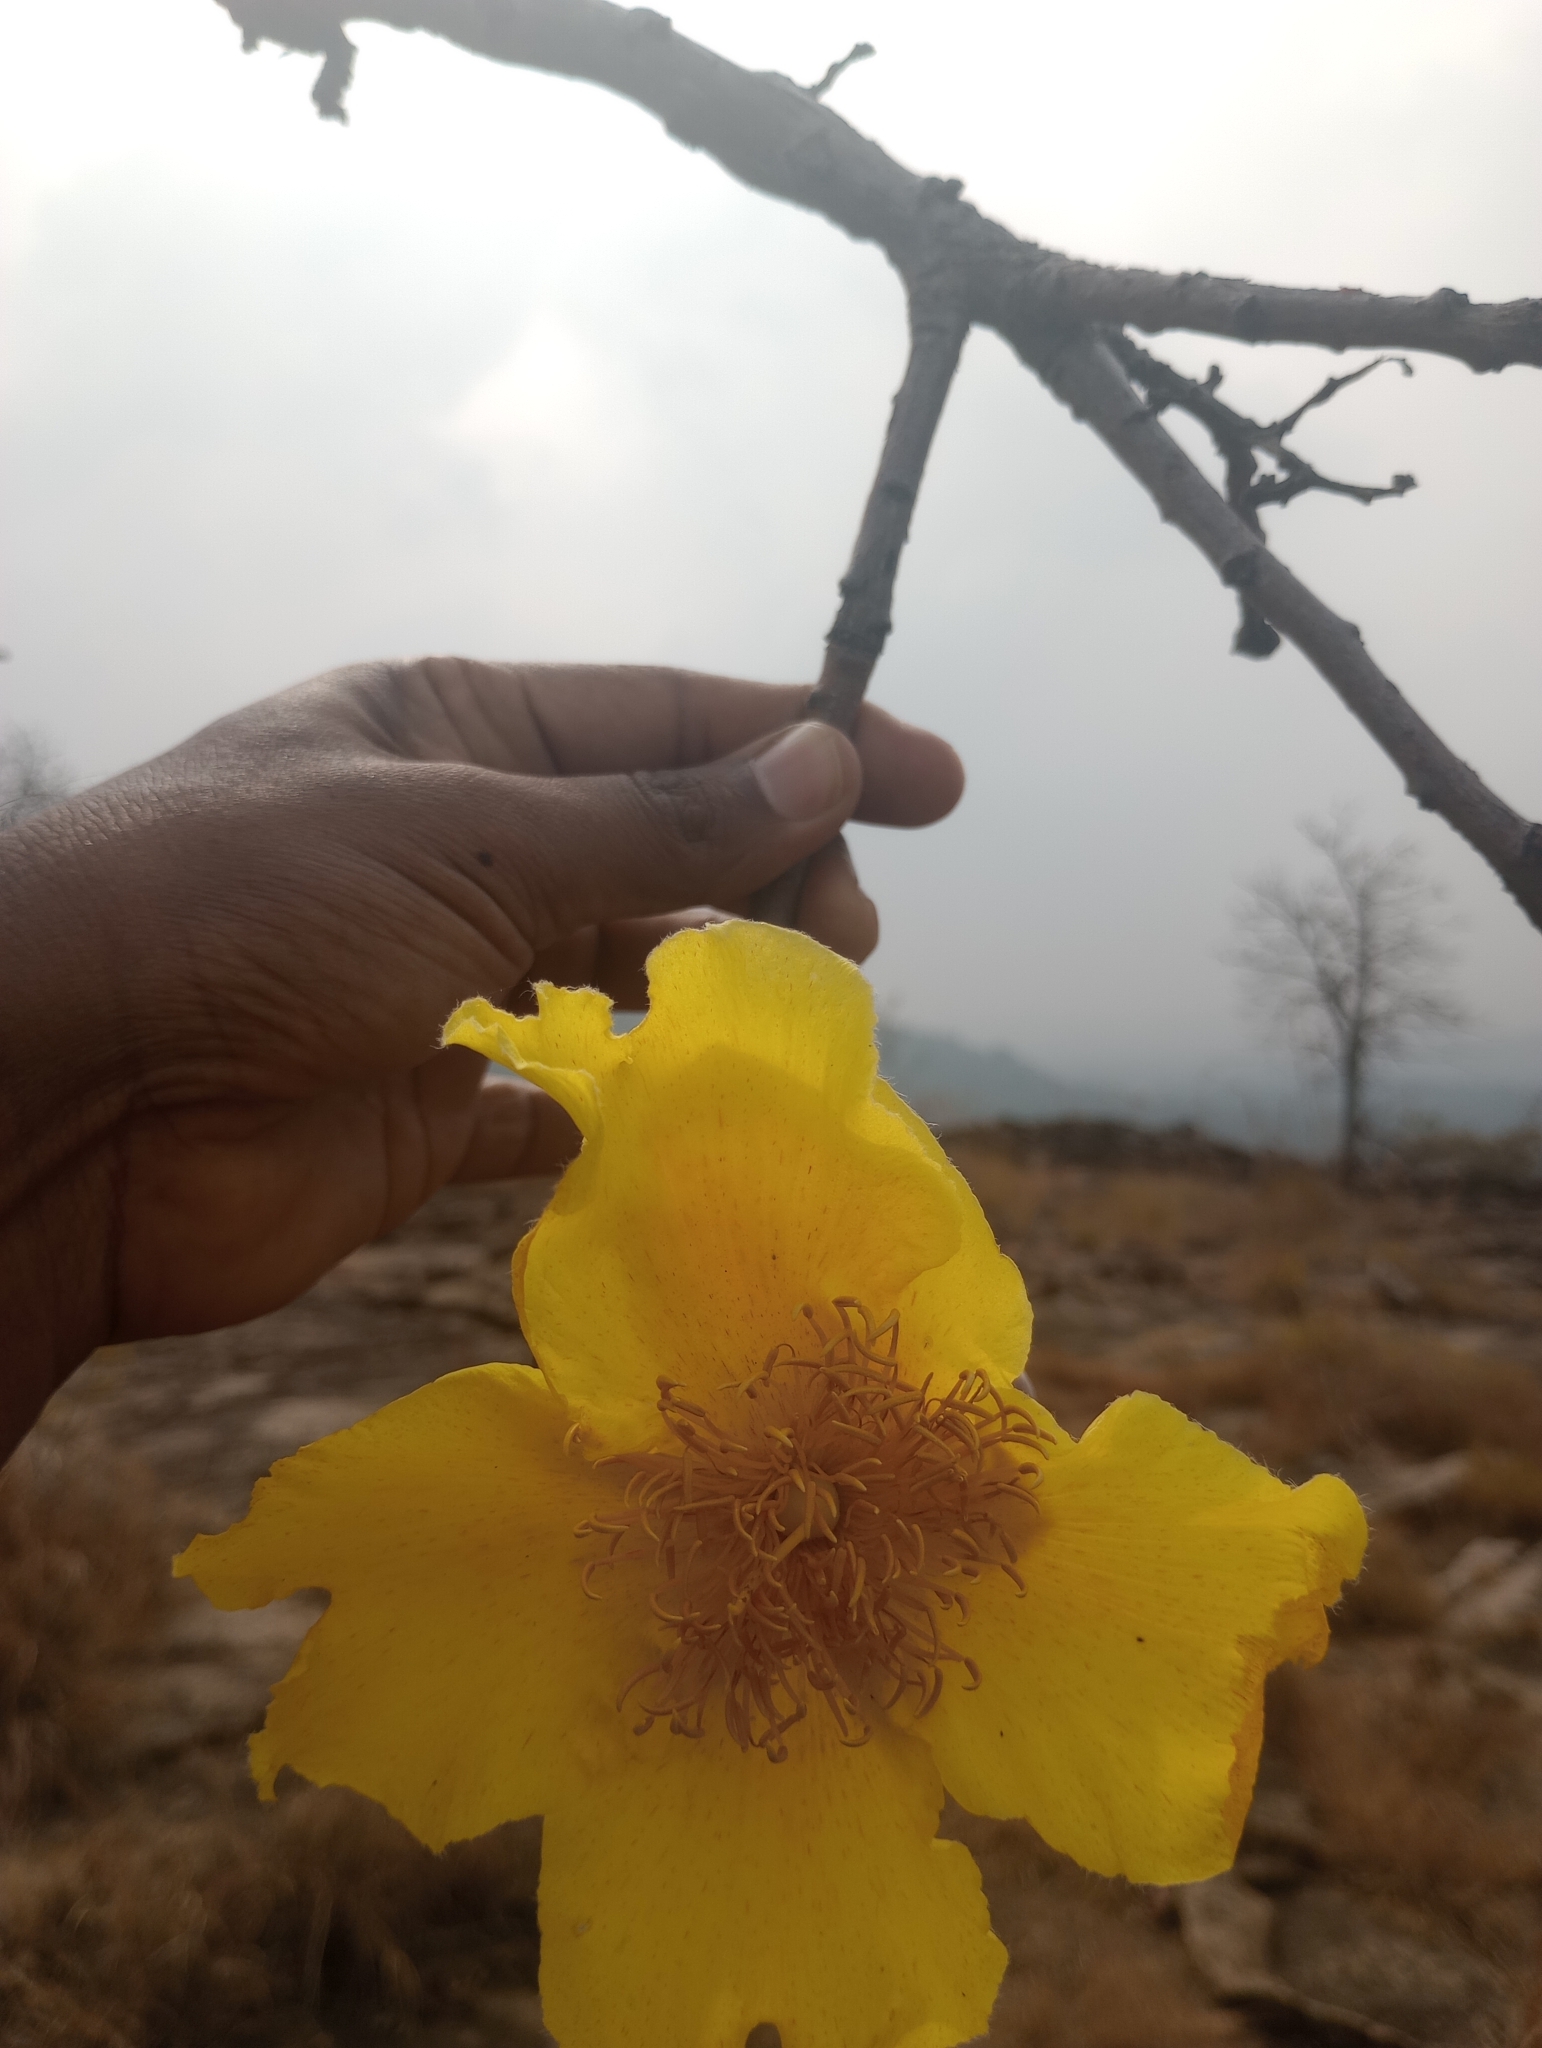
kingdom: Plantae
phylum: Tracheophyta
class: Magnoliopsida
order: Malvales
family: Cochlospermaceae
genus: Cochlospermum
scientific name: Cochlospermum religiosum
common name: Cottontree
